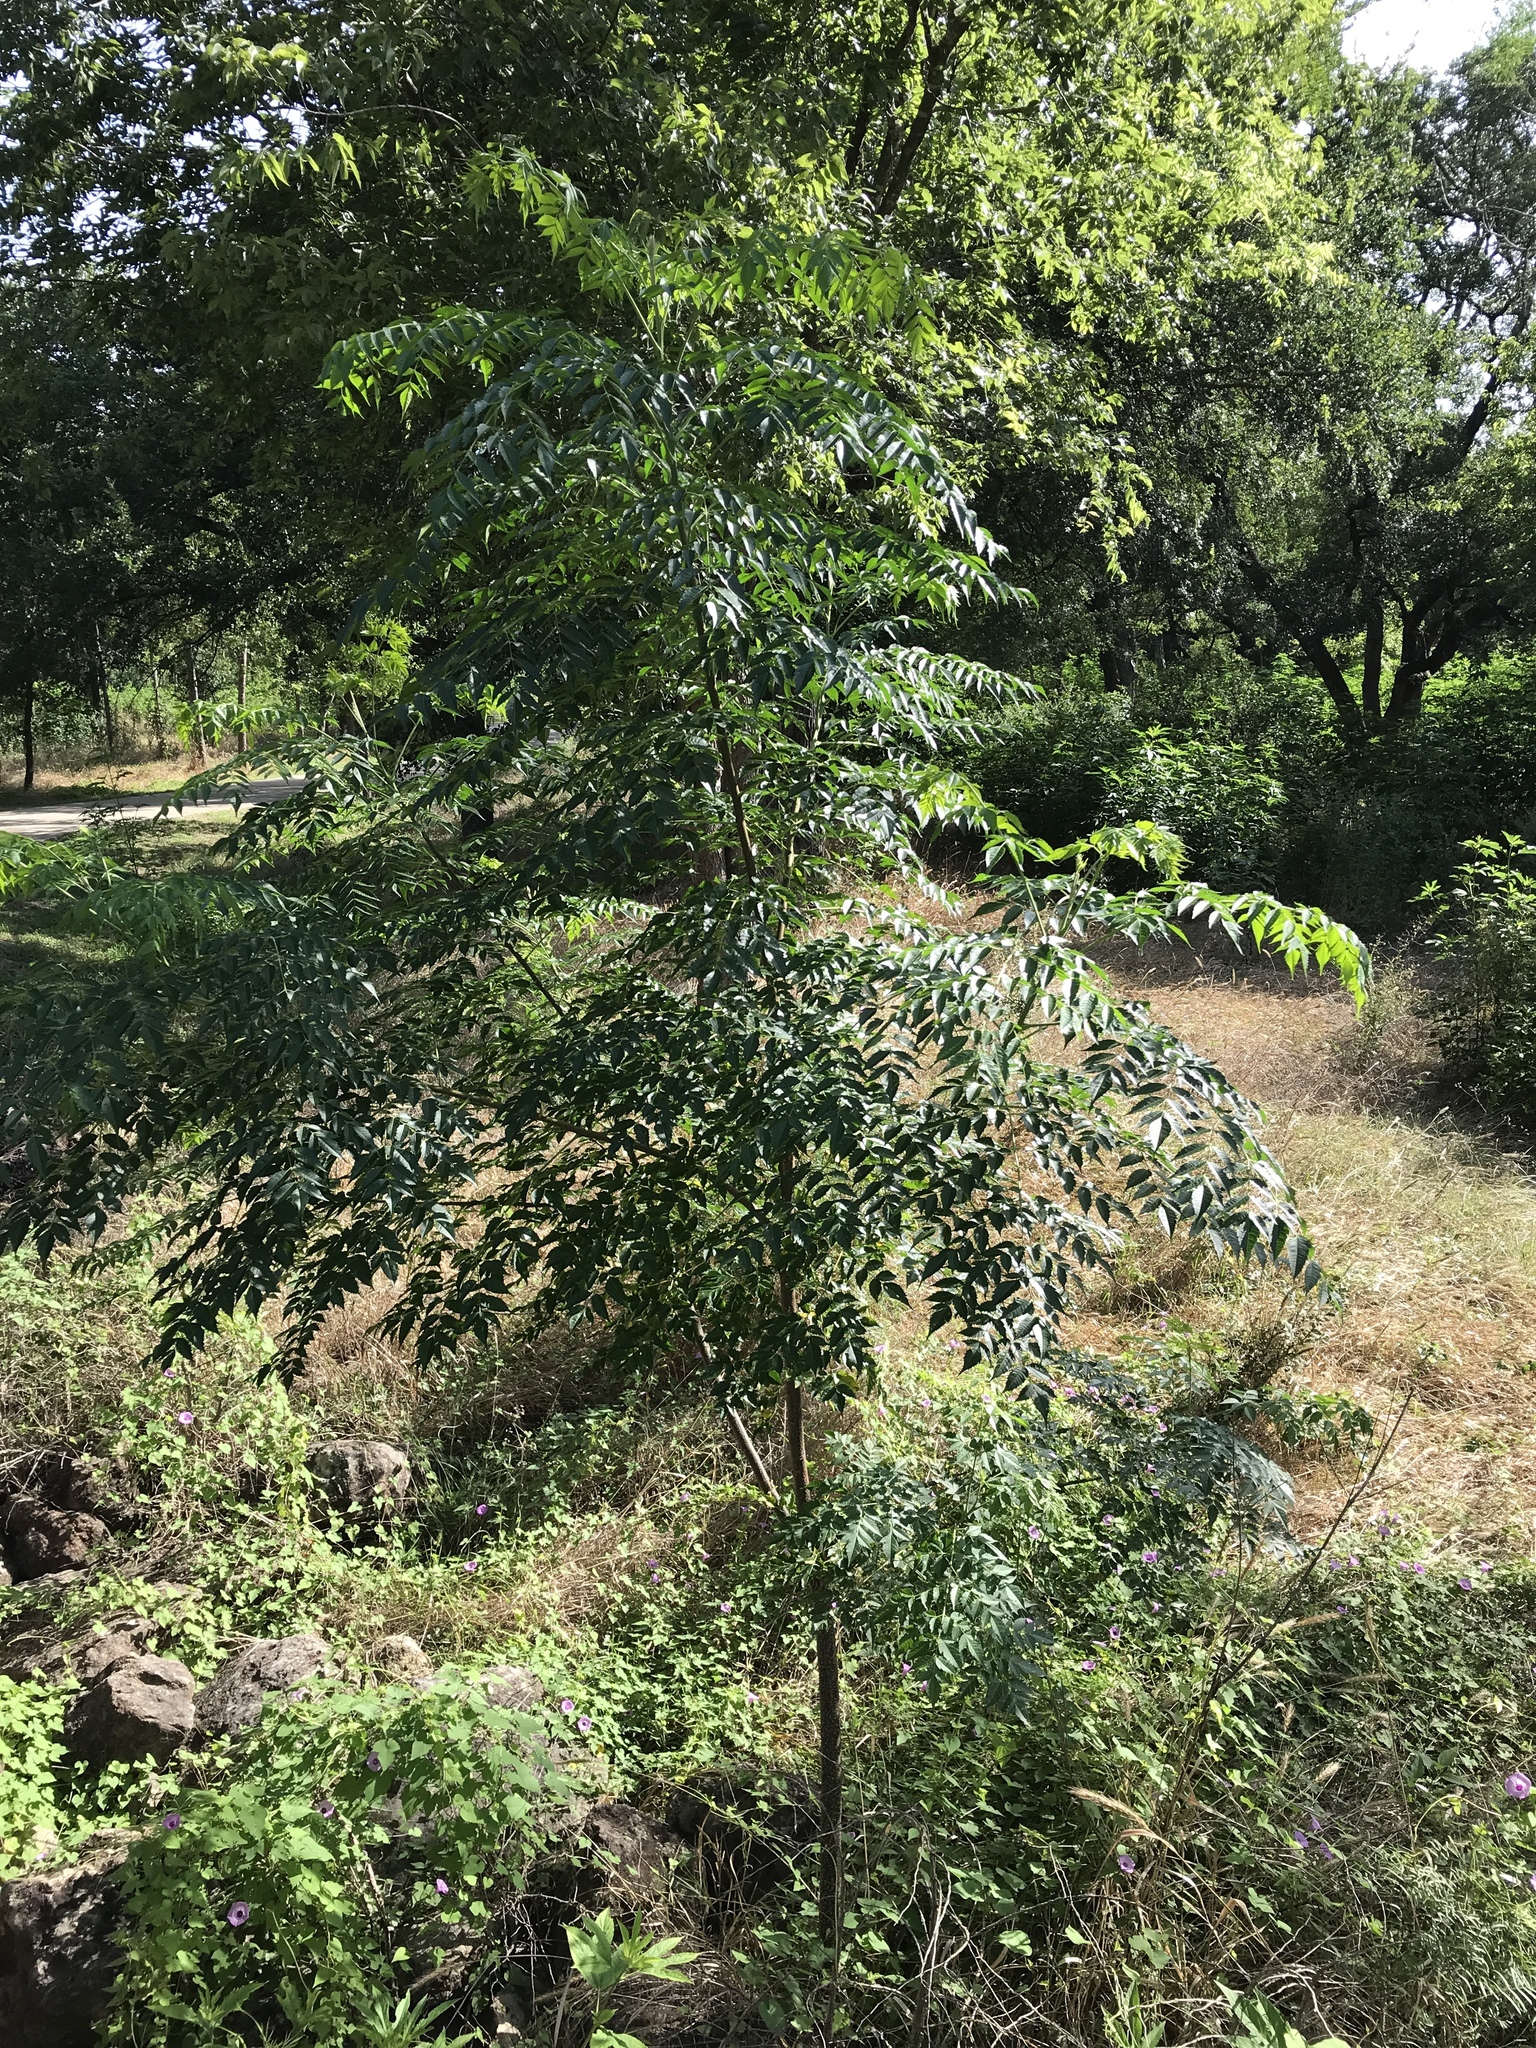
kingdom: Plantae
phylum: Tracheophyta
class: Magnoliopsida
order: Sapindales
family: Meliaceae
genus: Melia
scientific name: Melia azedarach
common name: Chinaberrytree
